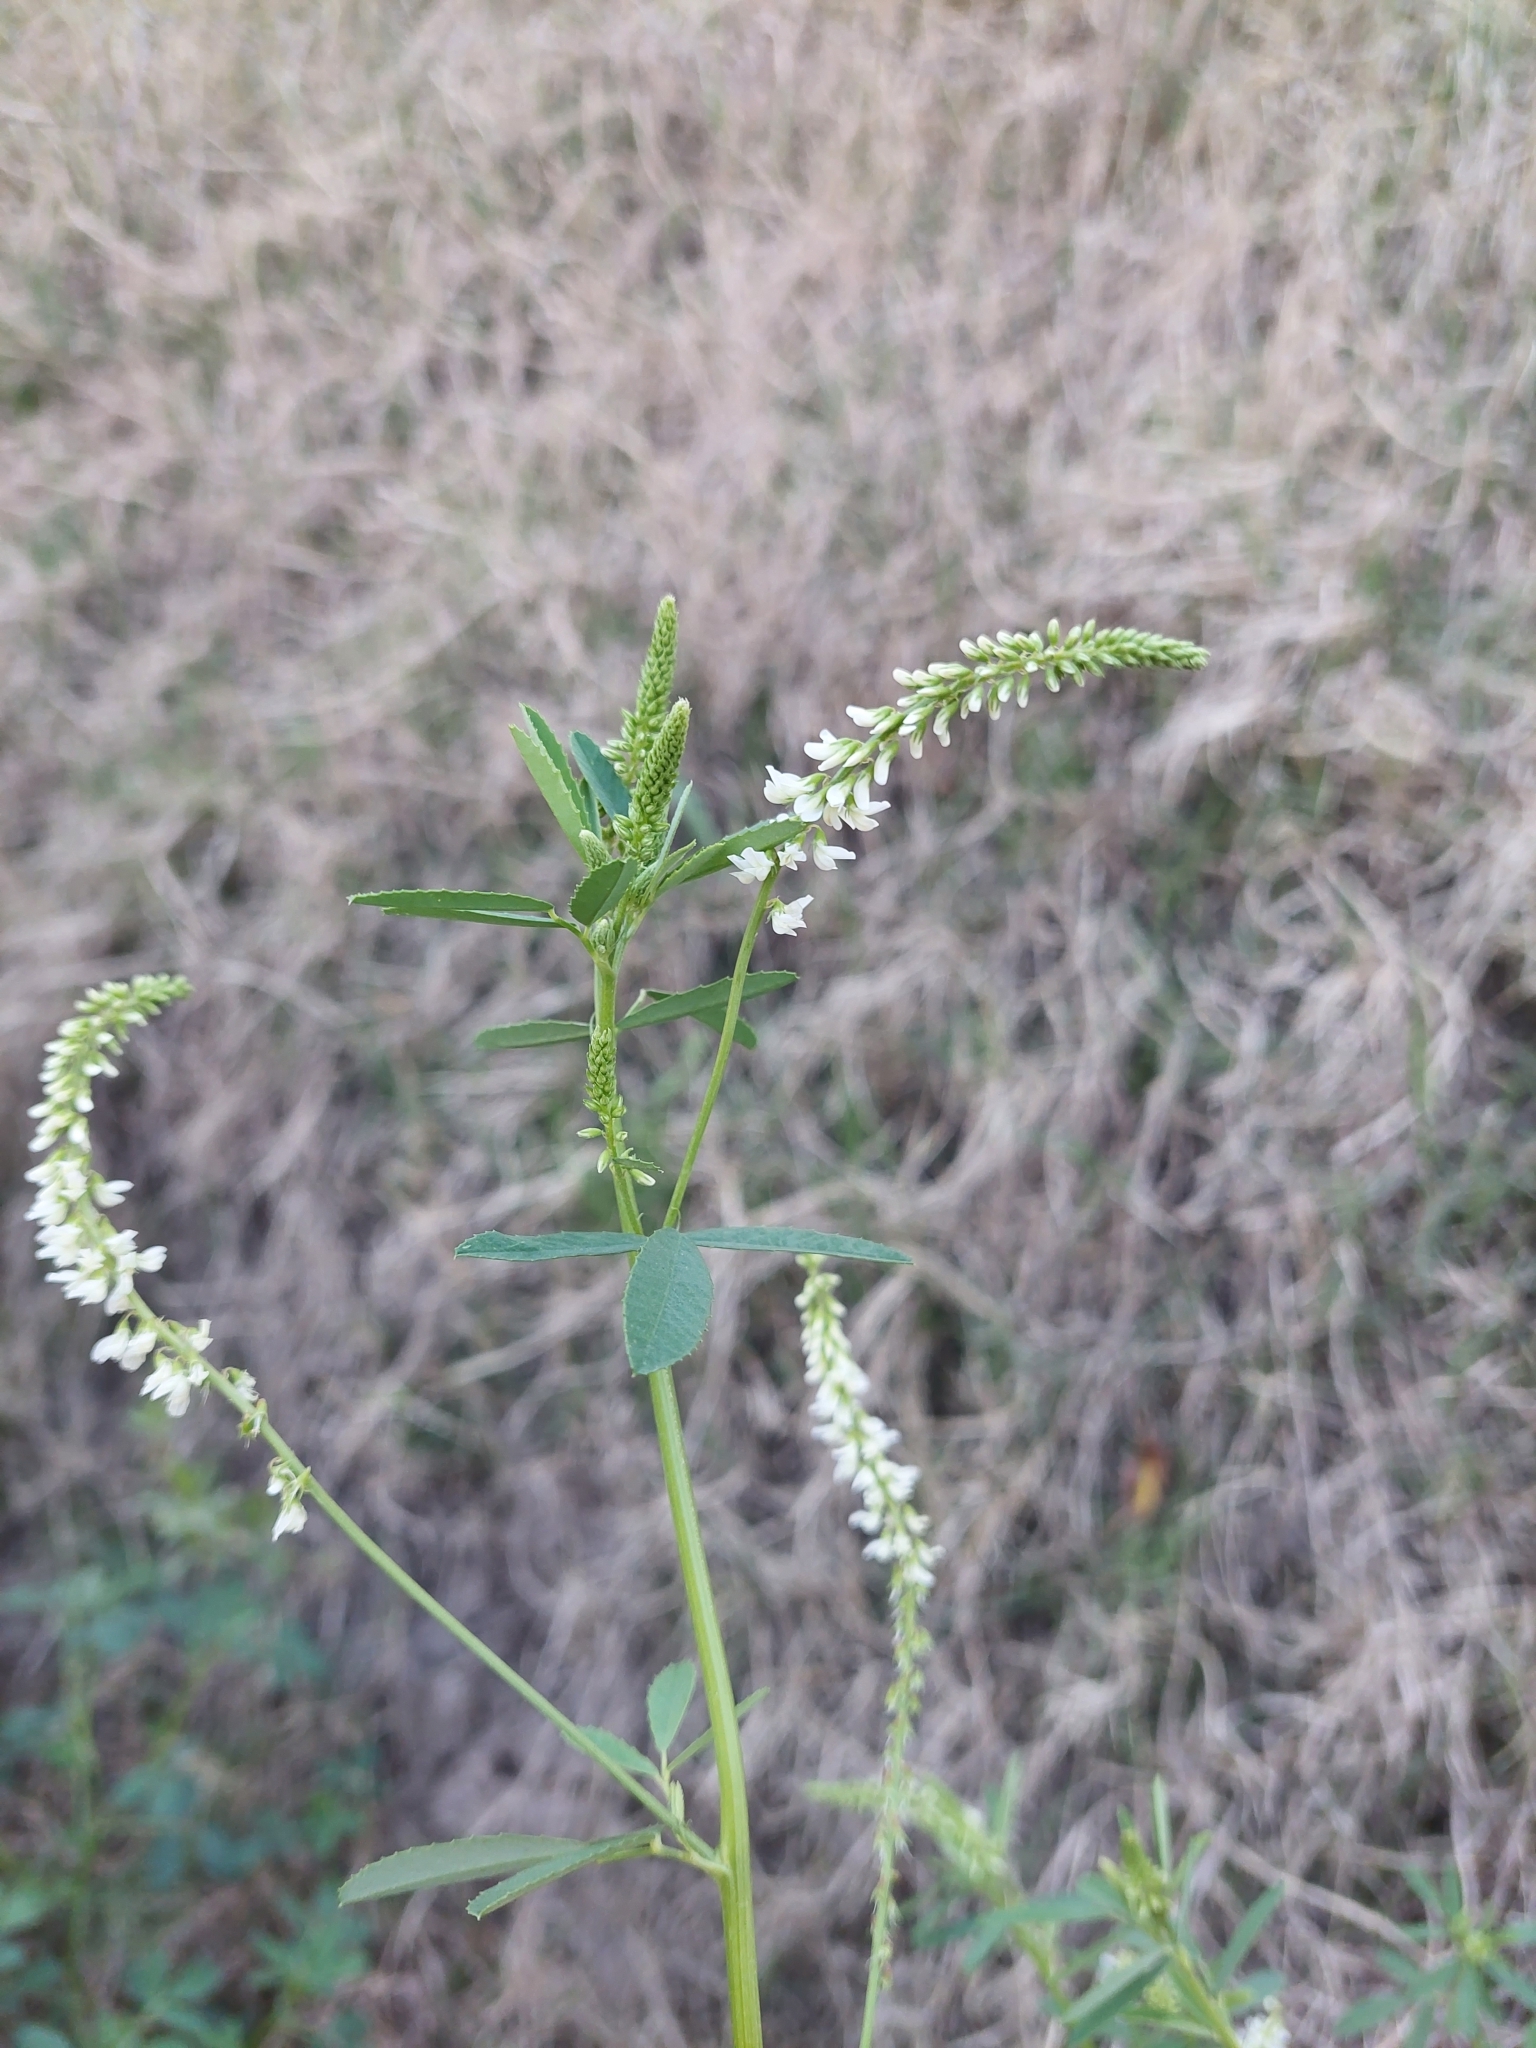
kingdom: Plantae
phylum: Tracheophyta
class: Magnoliopsida
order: Fabales
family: Fabaceae
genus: Melilotus
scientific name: Melilotus albus
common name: White melilot
